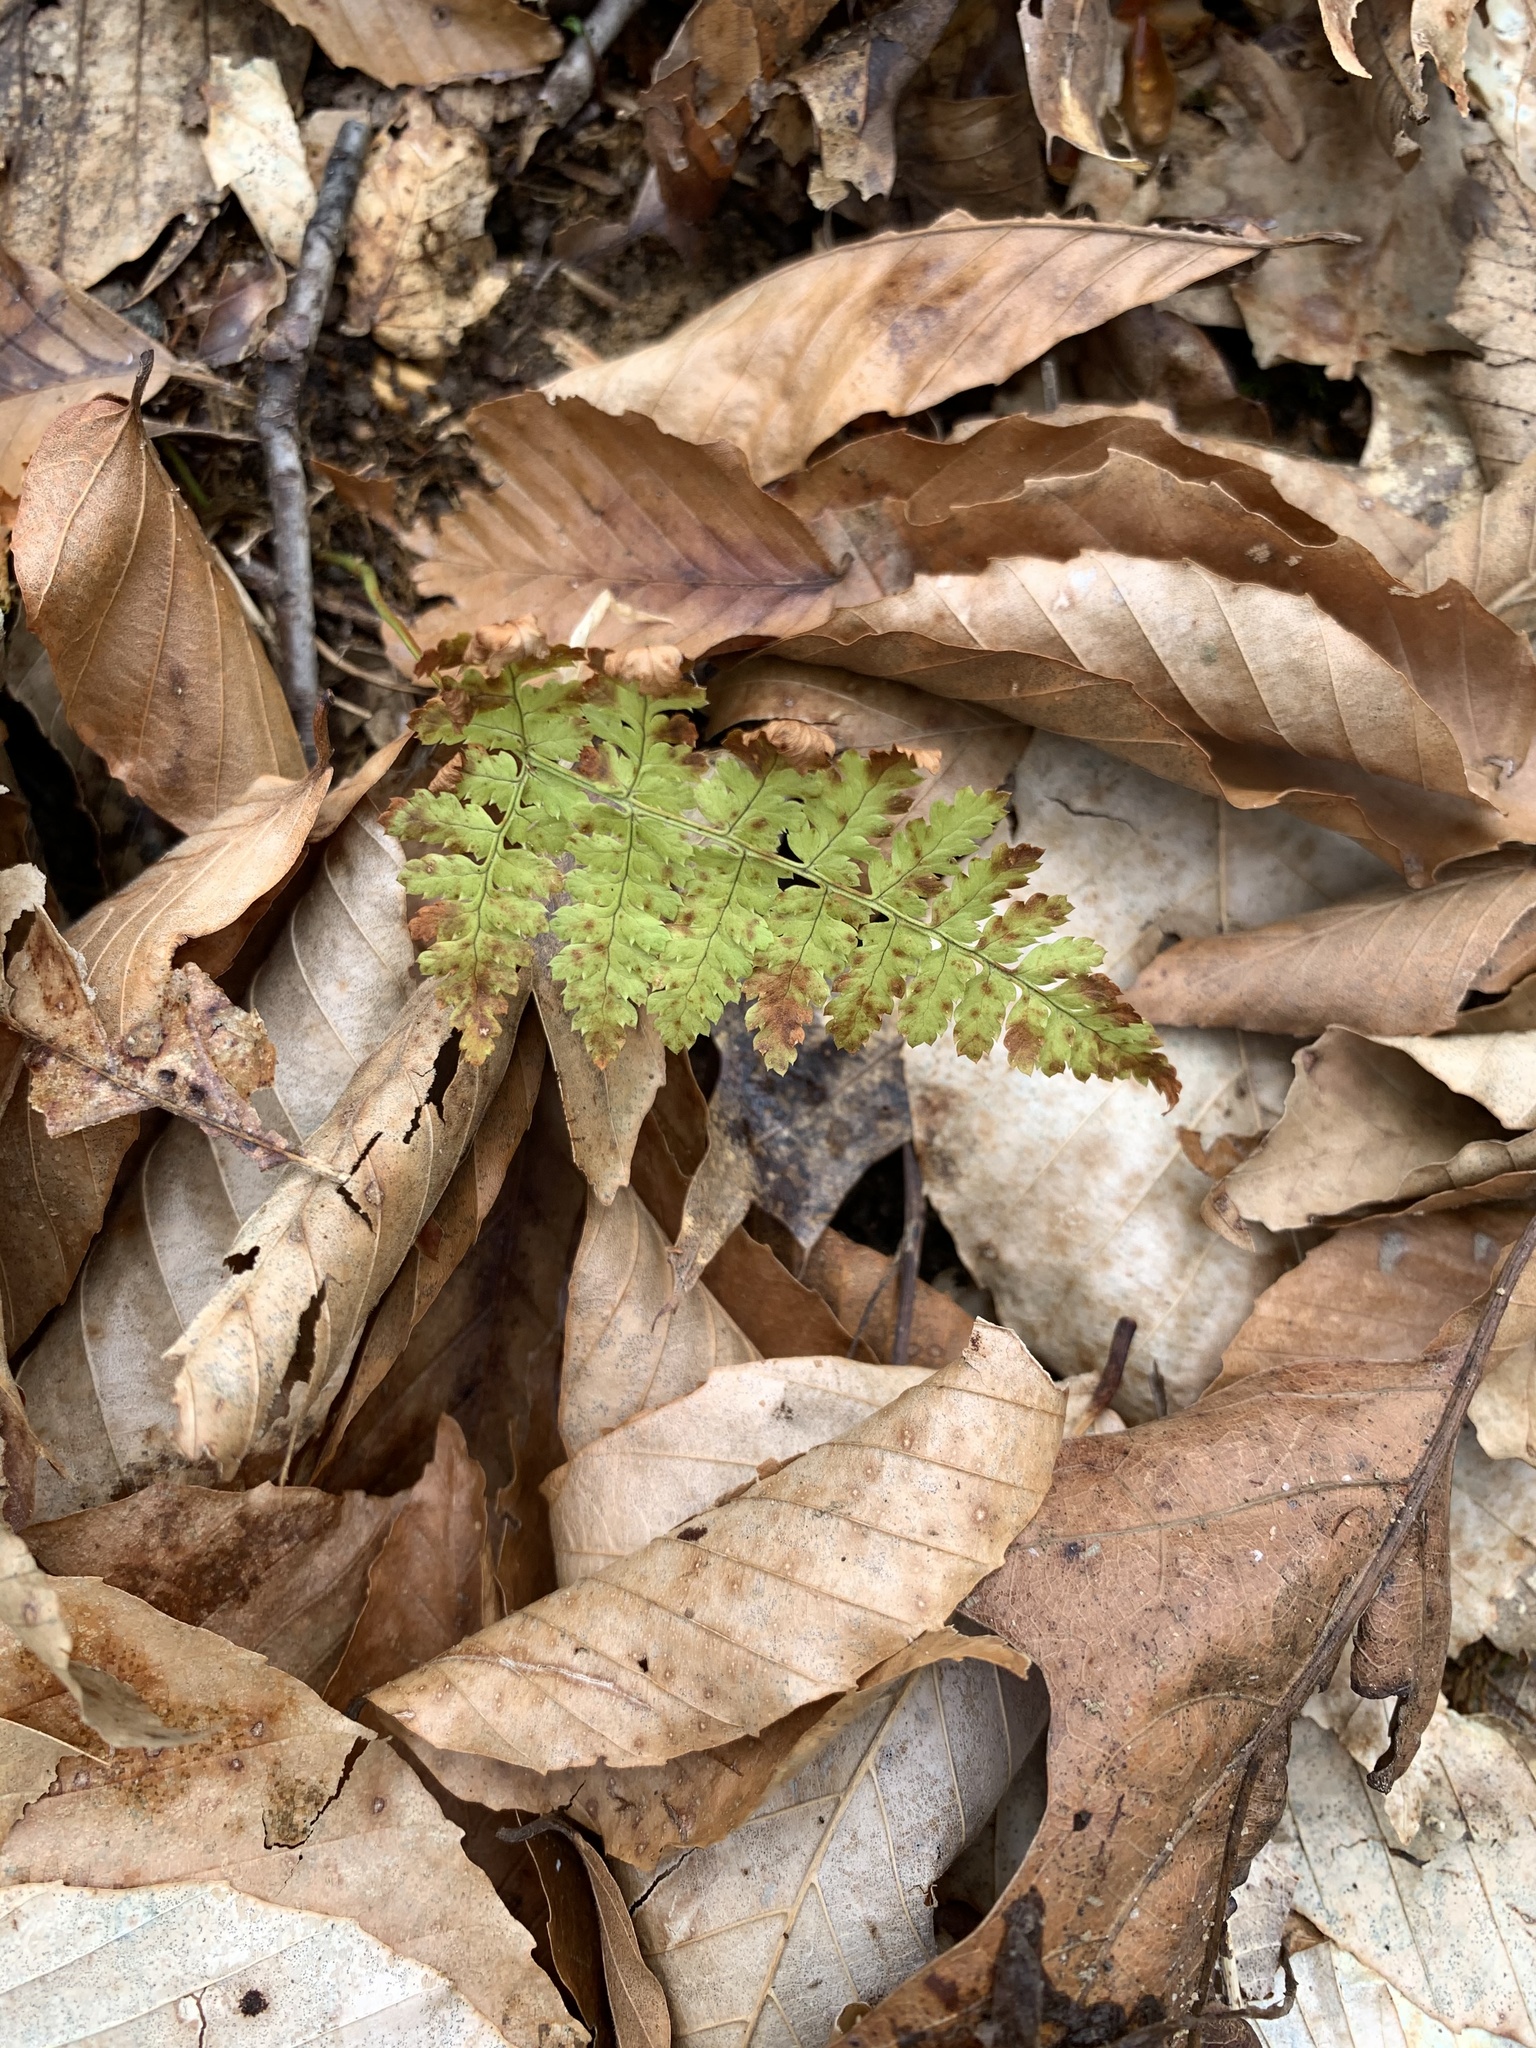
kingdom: Plantae
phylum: Tracheophyta
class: Polypodiopsida
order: Polypodiales
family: Dryopteridaceae
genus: Dryopteris
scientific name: Dryopteris intermedia
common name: Evergreen wood fern
